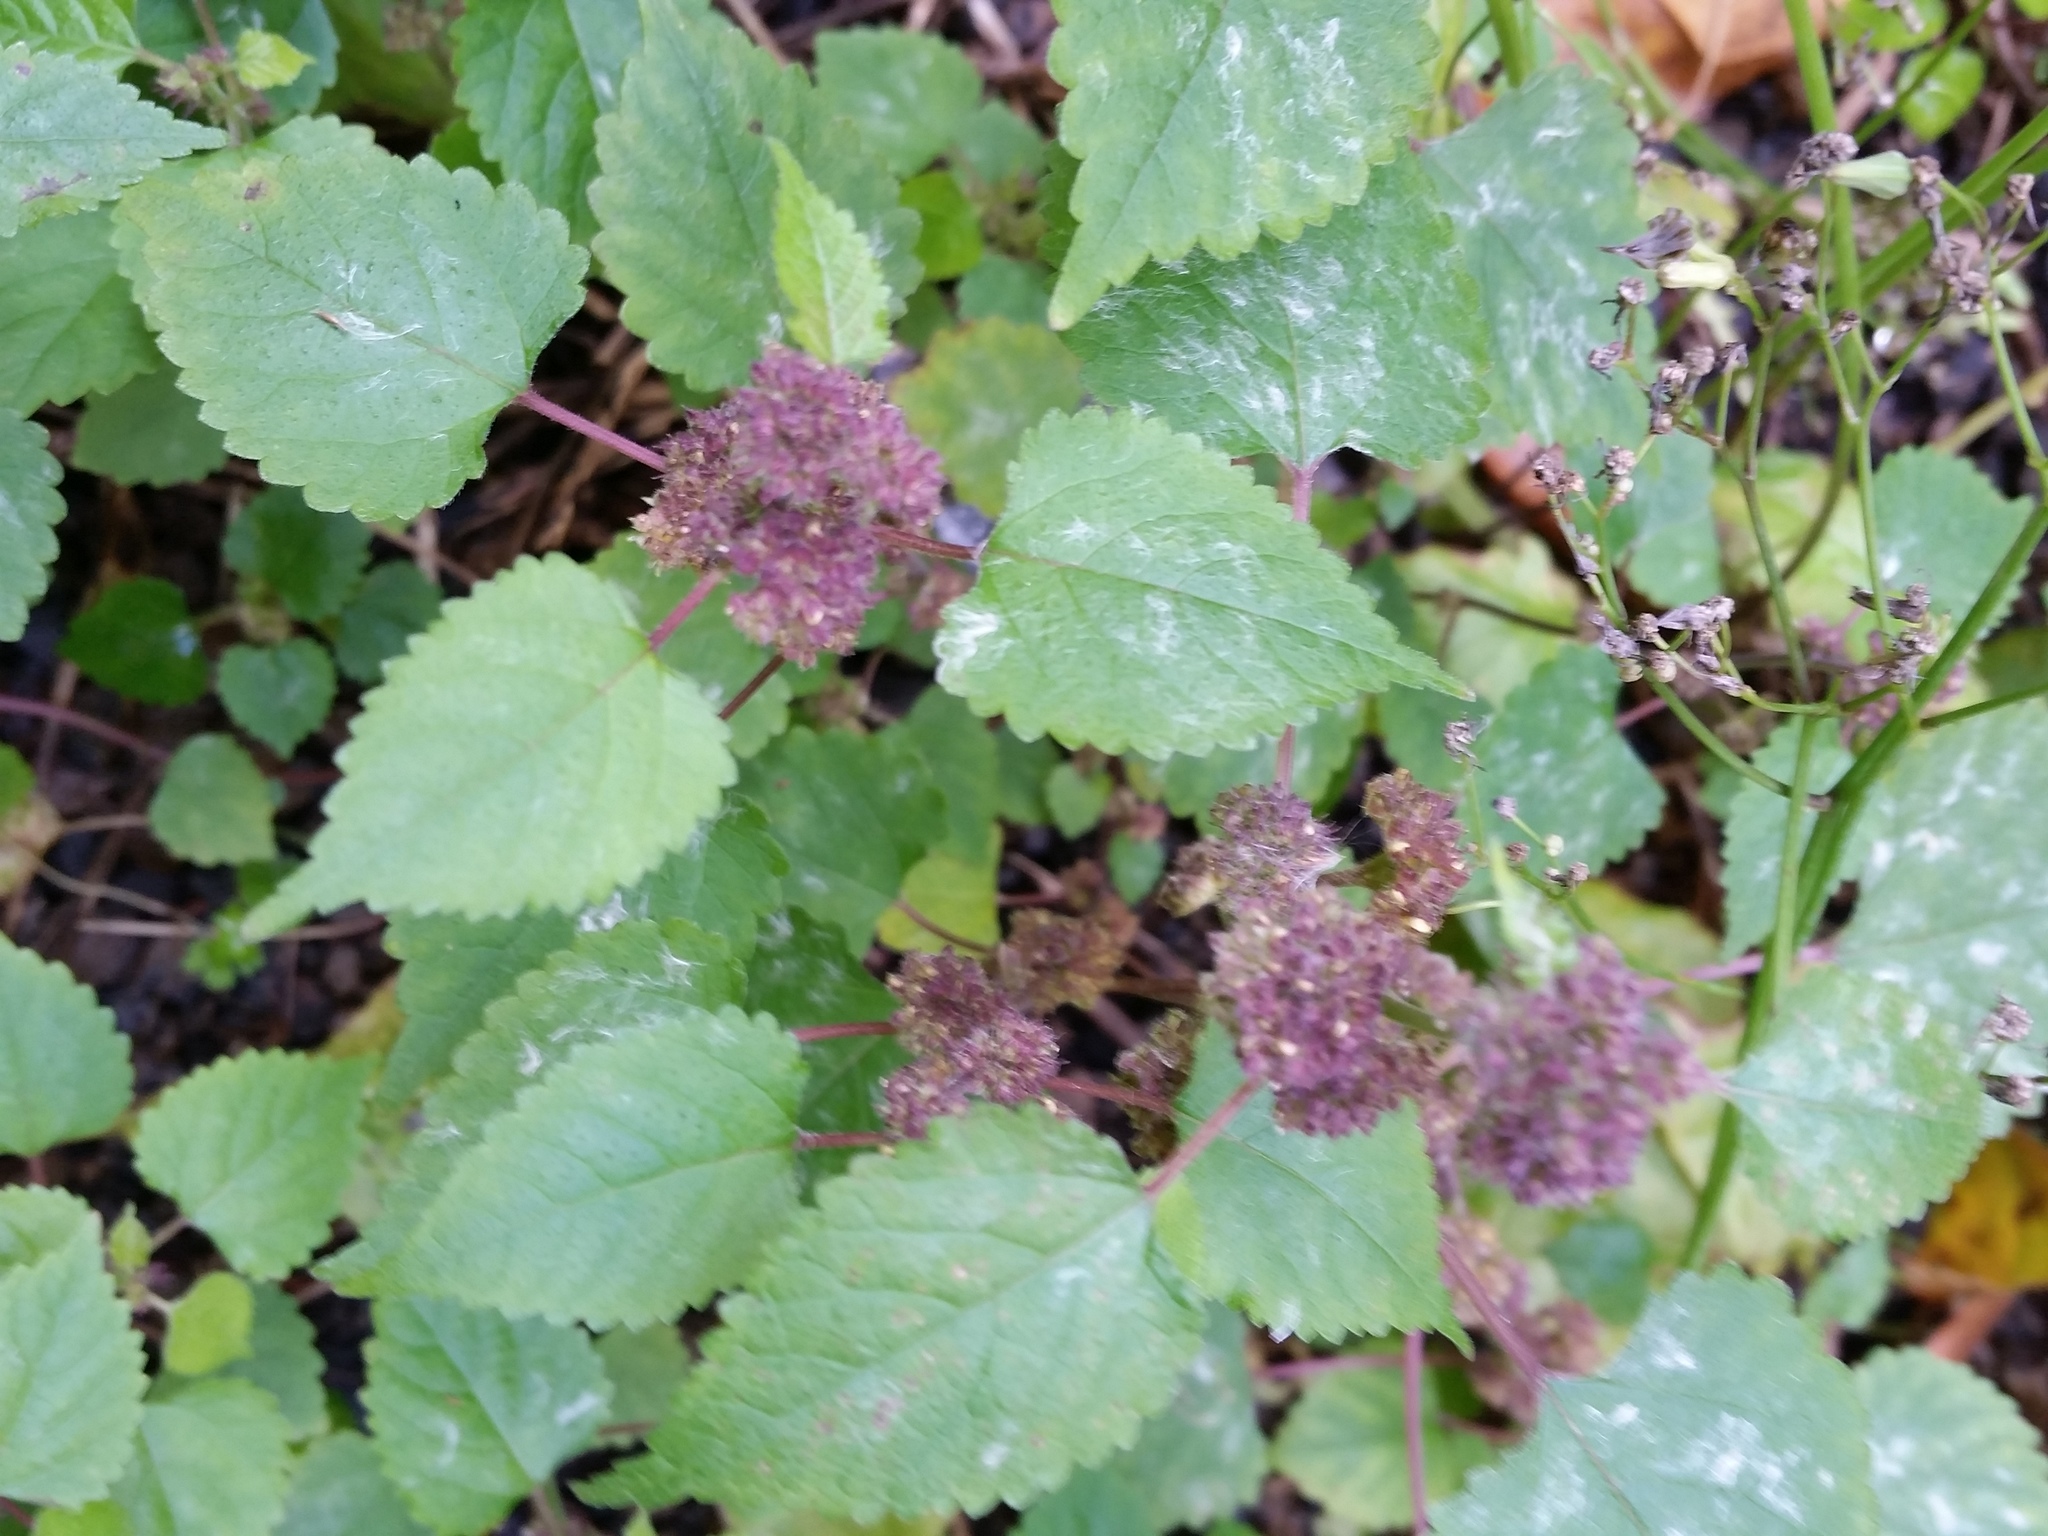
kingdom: Plantae
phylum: Tracheophyta
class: Magnoliopsida
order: Rosales
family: Moraceae
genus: Fatoua
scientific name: Fatoua villosa
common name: Hairy crabweed
